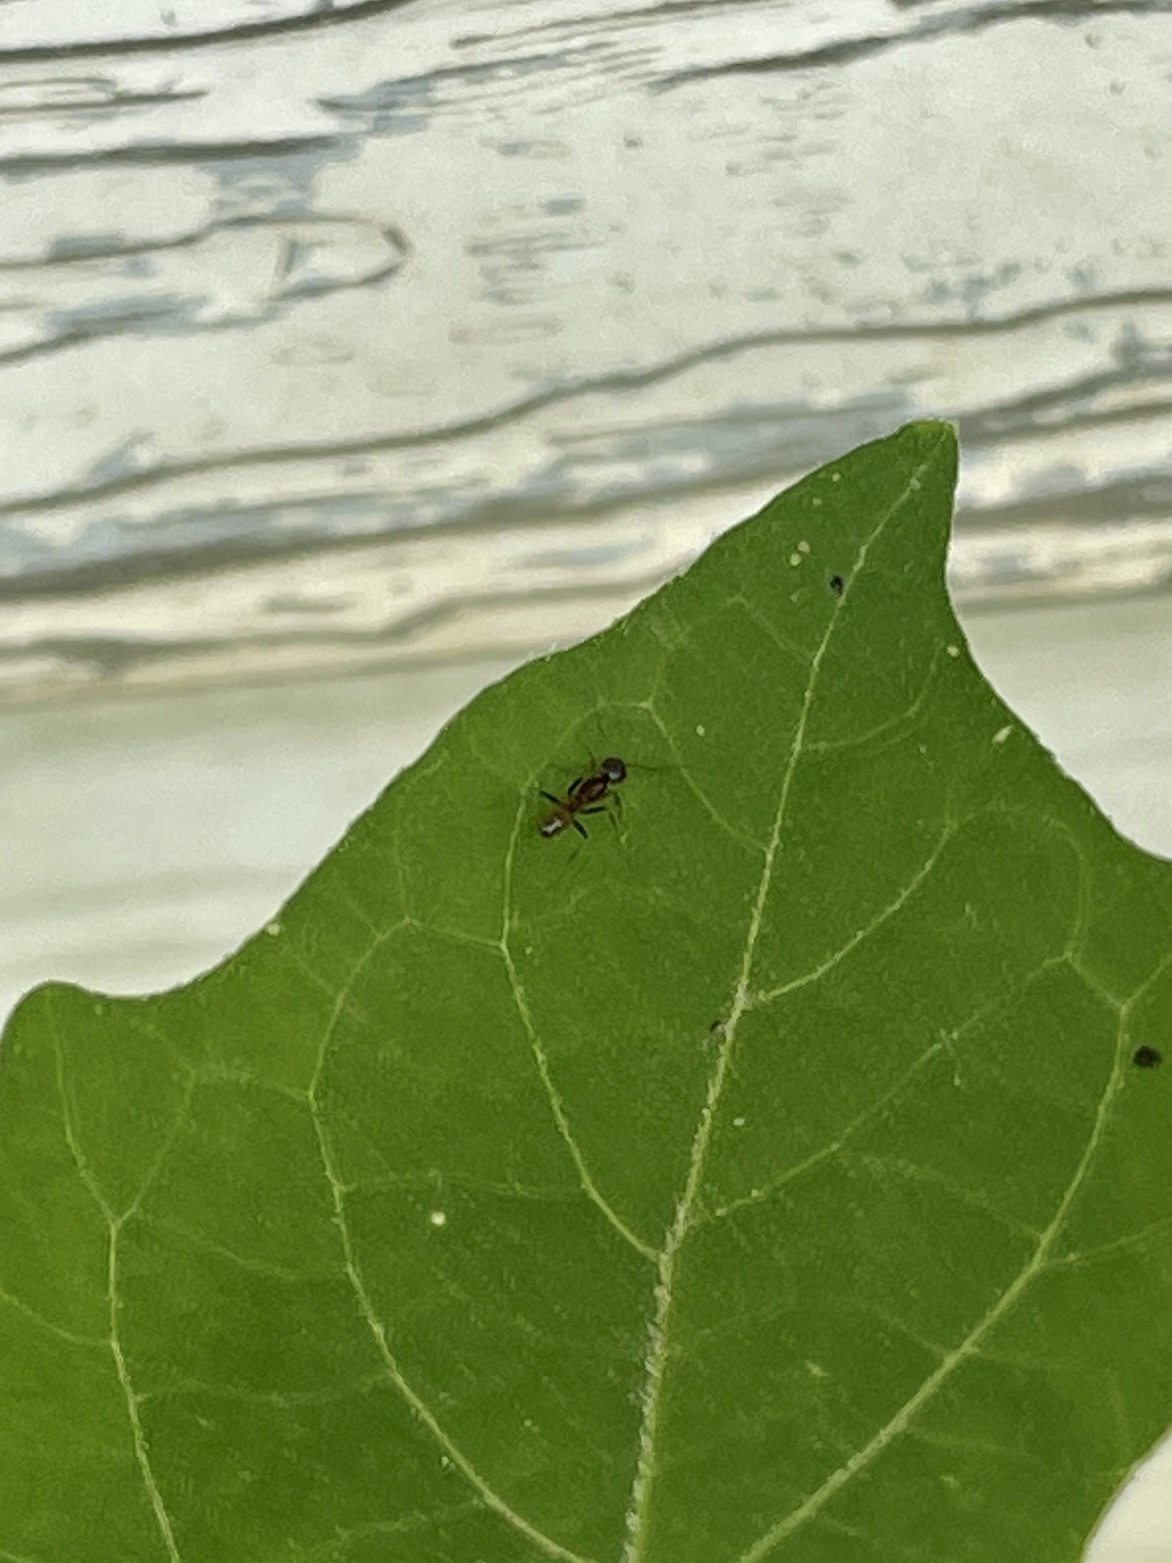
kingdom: Animalia
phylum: Arthropoda
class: Insecta
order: Hymenoptera
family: Formicidae
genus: Dorymyrmex
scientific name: Dorymyrmex flavus
